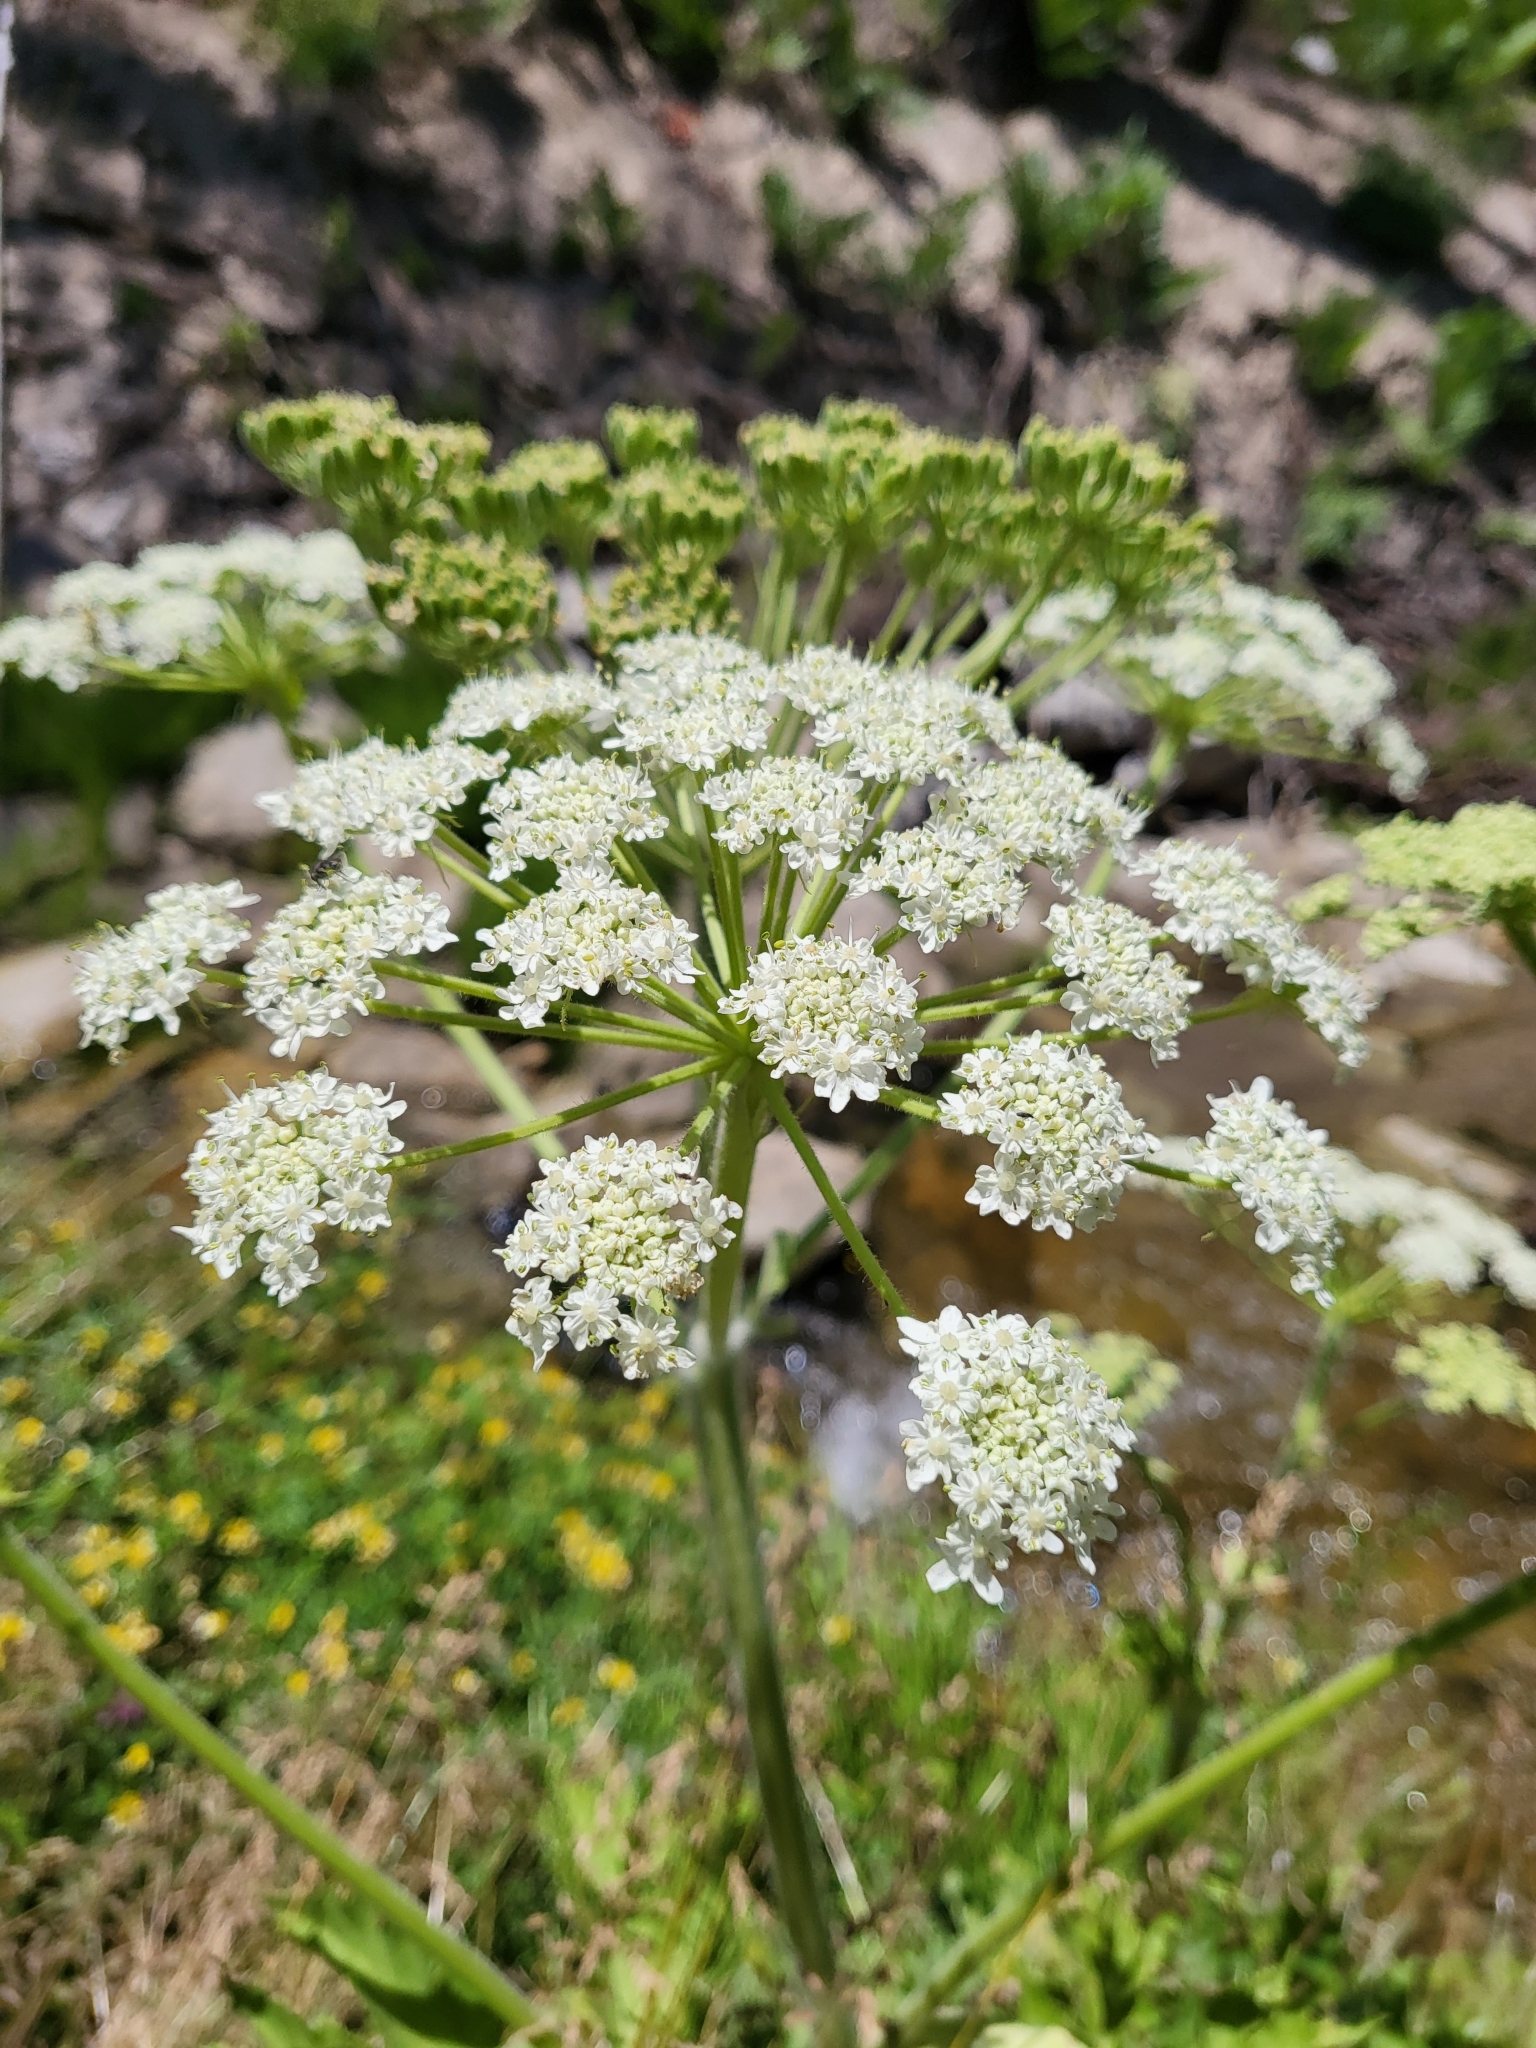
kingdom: Plantae
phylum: Tracheophyta
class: Magnoliopsida
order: Apiales
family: Apiaceae
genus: Heracleum
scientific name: Heracleum maximum
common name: American cow parsnip
